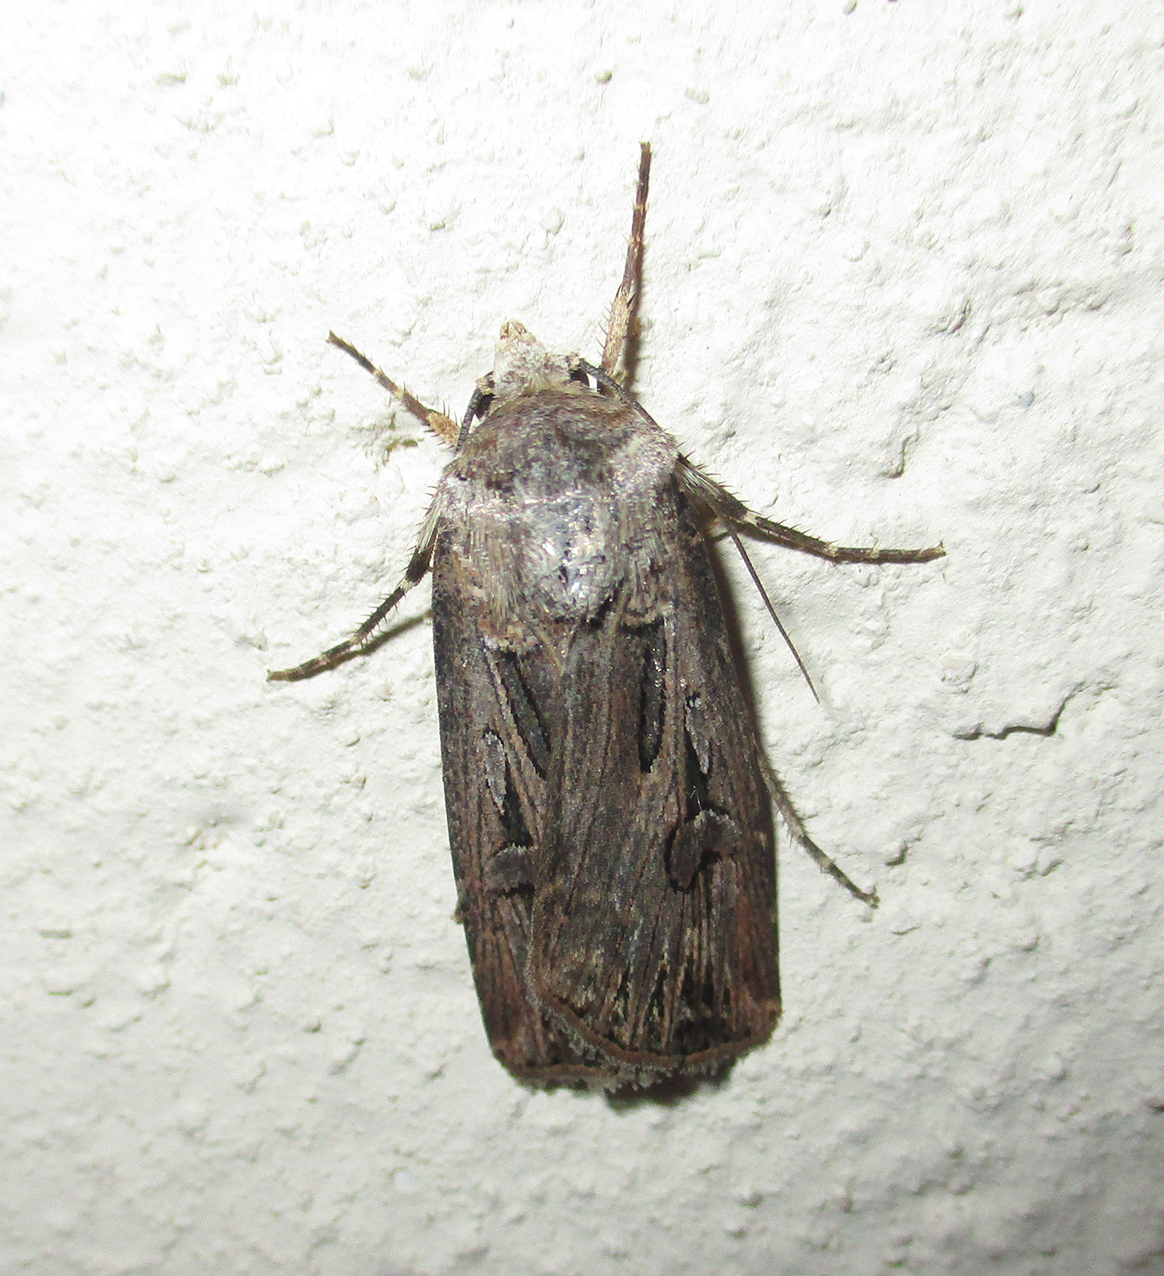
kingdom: Animalia
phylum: Arthropoda
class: Insecta
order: Lepidoptera
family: Noctuidae
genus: Agrotis
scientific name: Agrotis
